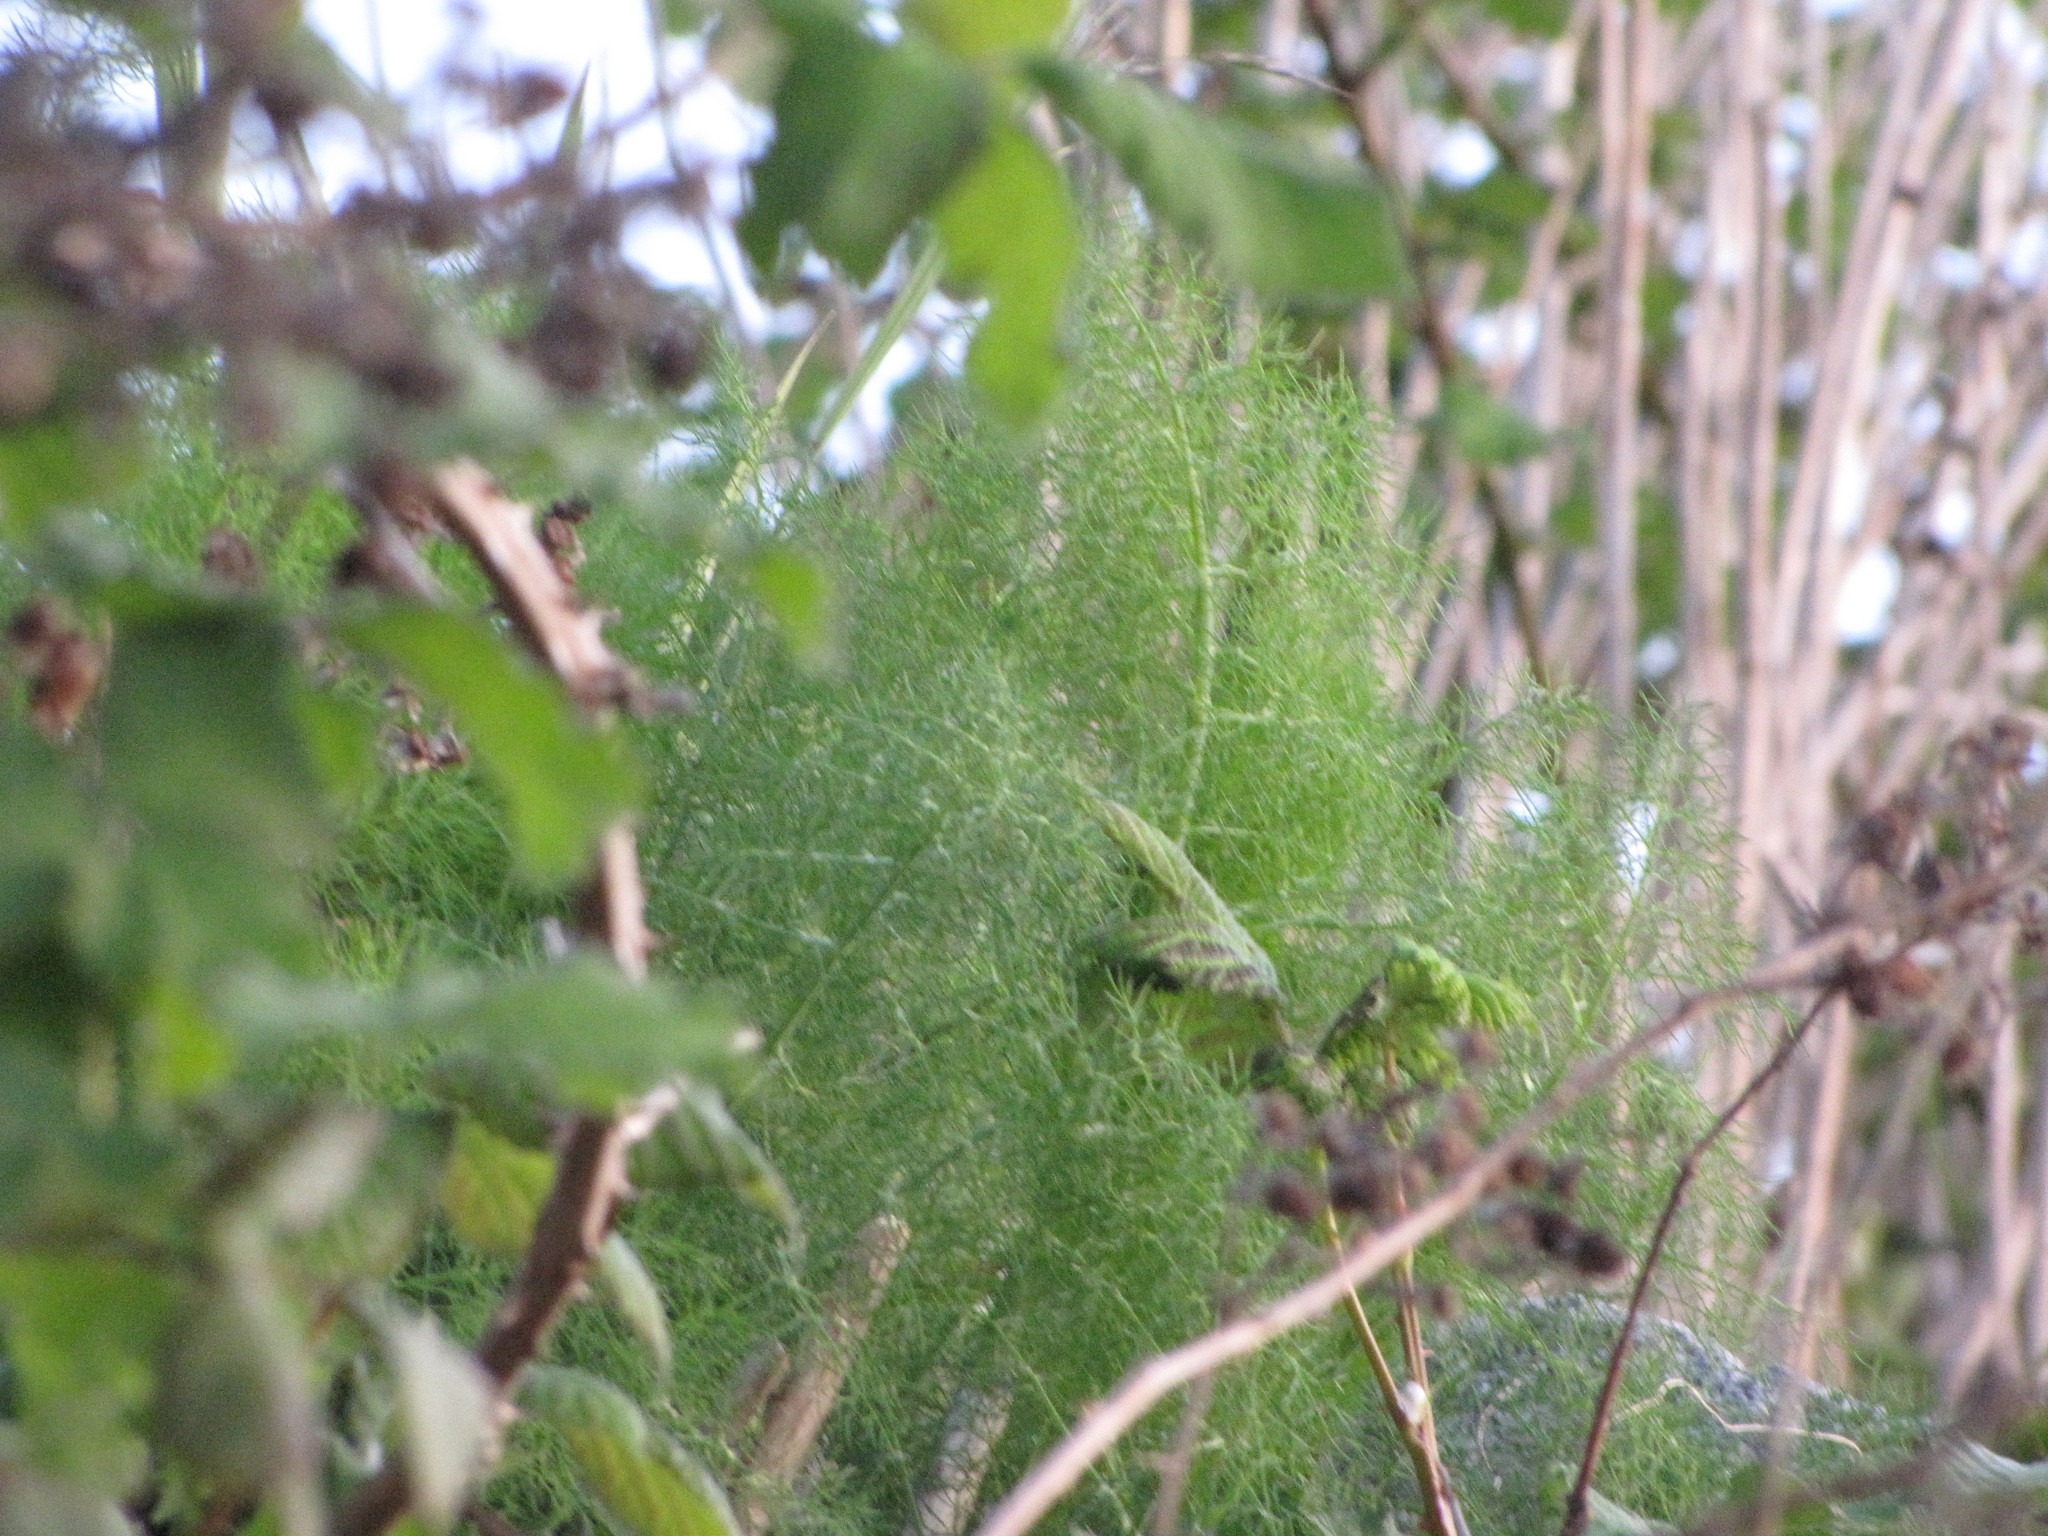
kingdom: Plantae
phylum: Tracheophyta
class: Magnoliopsida
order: Apiales
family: Apiaceae
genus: Foeniculum
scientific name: Foeniculum vulgare
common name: Fennel
